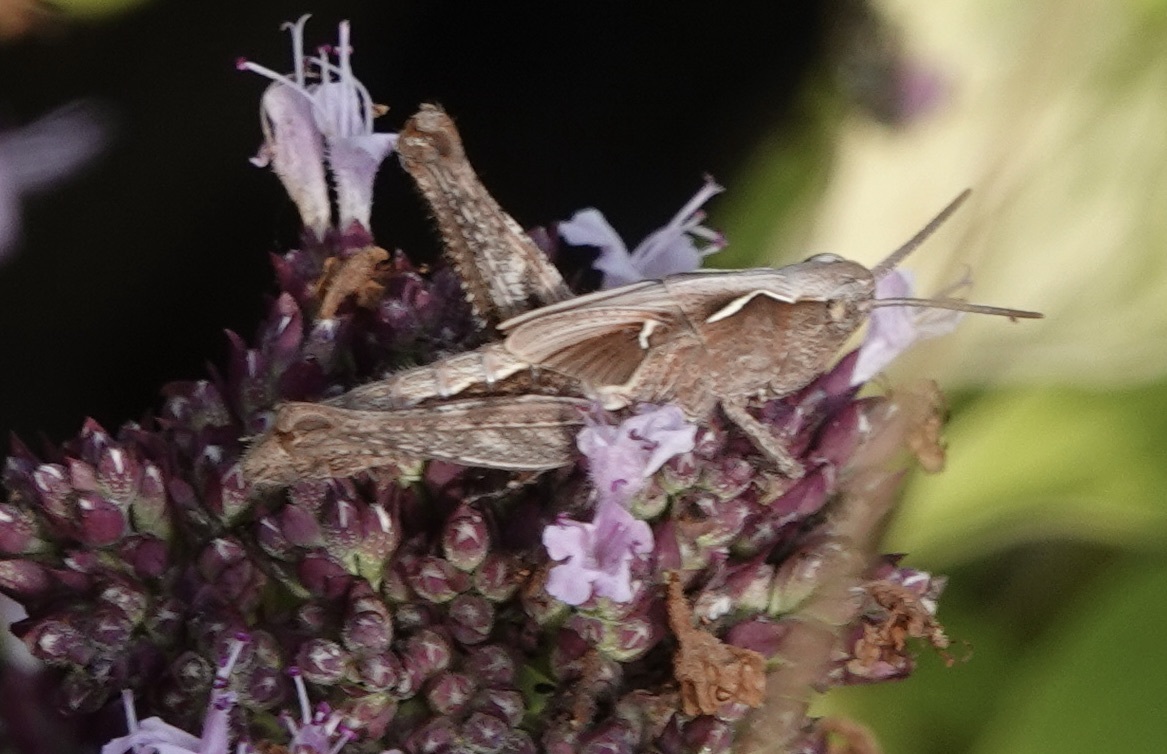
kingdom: Animalia
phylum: Arthropoda
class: Insecta
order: Orthoptera
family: Acrididae
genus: Chorthippus
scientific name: Chorthippus brunneus
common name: Field grasshopper
